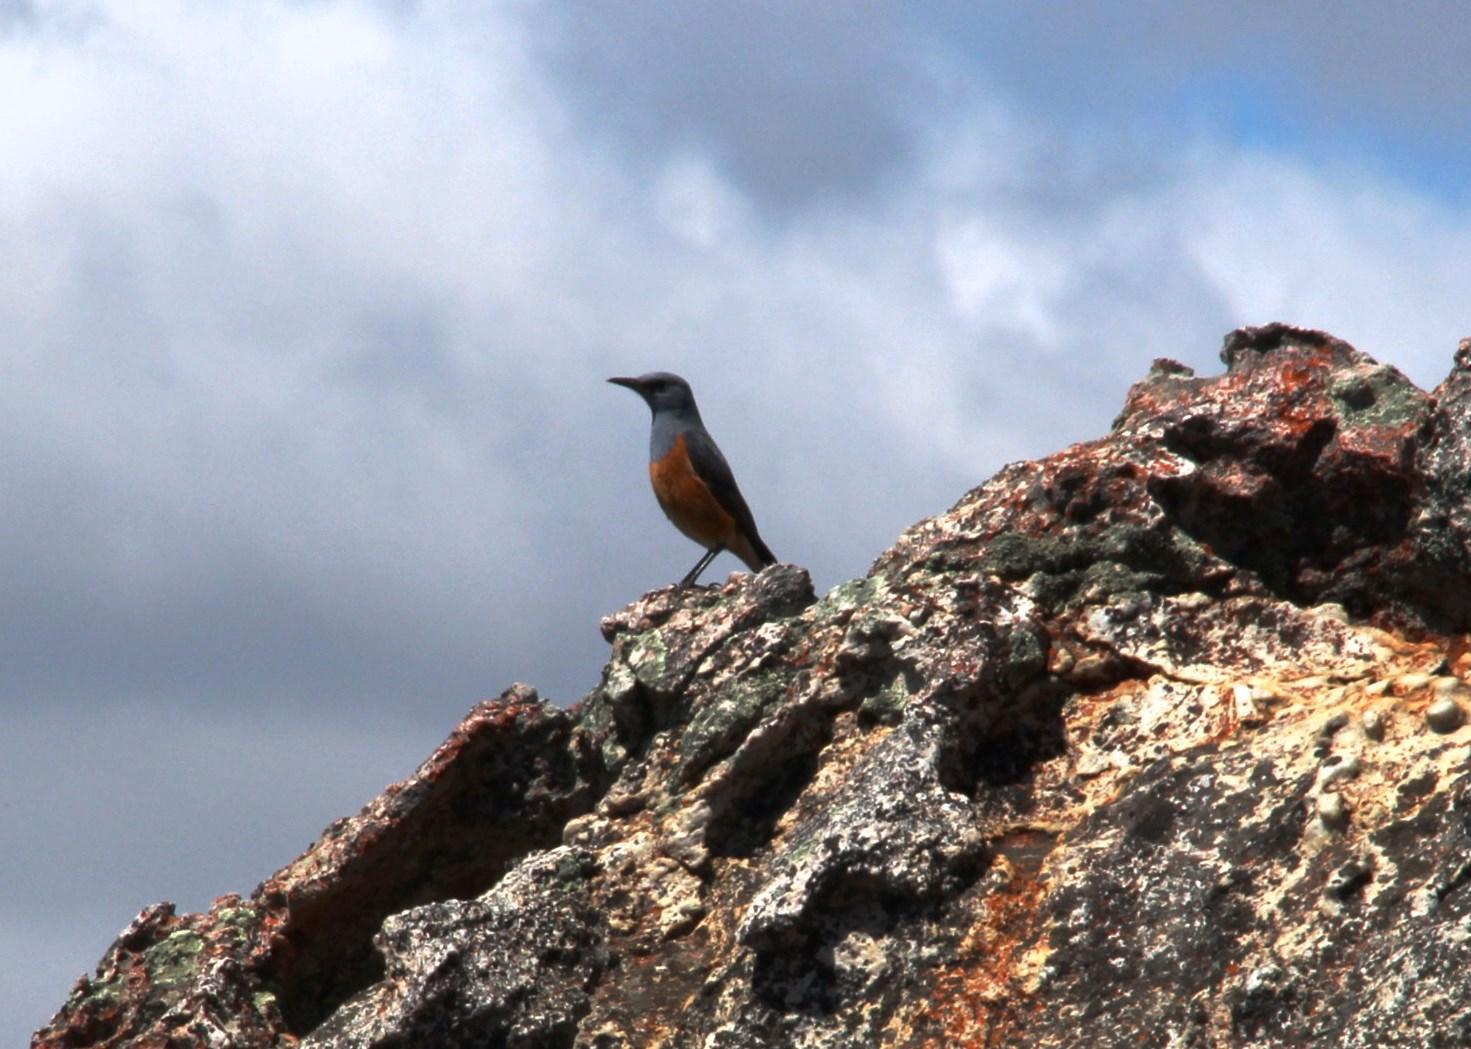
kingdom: Animalia
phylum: Chordata
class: Aves
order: Passeriformes
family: Muscicapidae
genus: Monticola
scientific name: Monticola explorator
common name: Sentinel rock thrush
